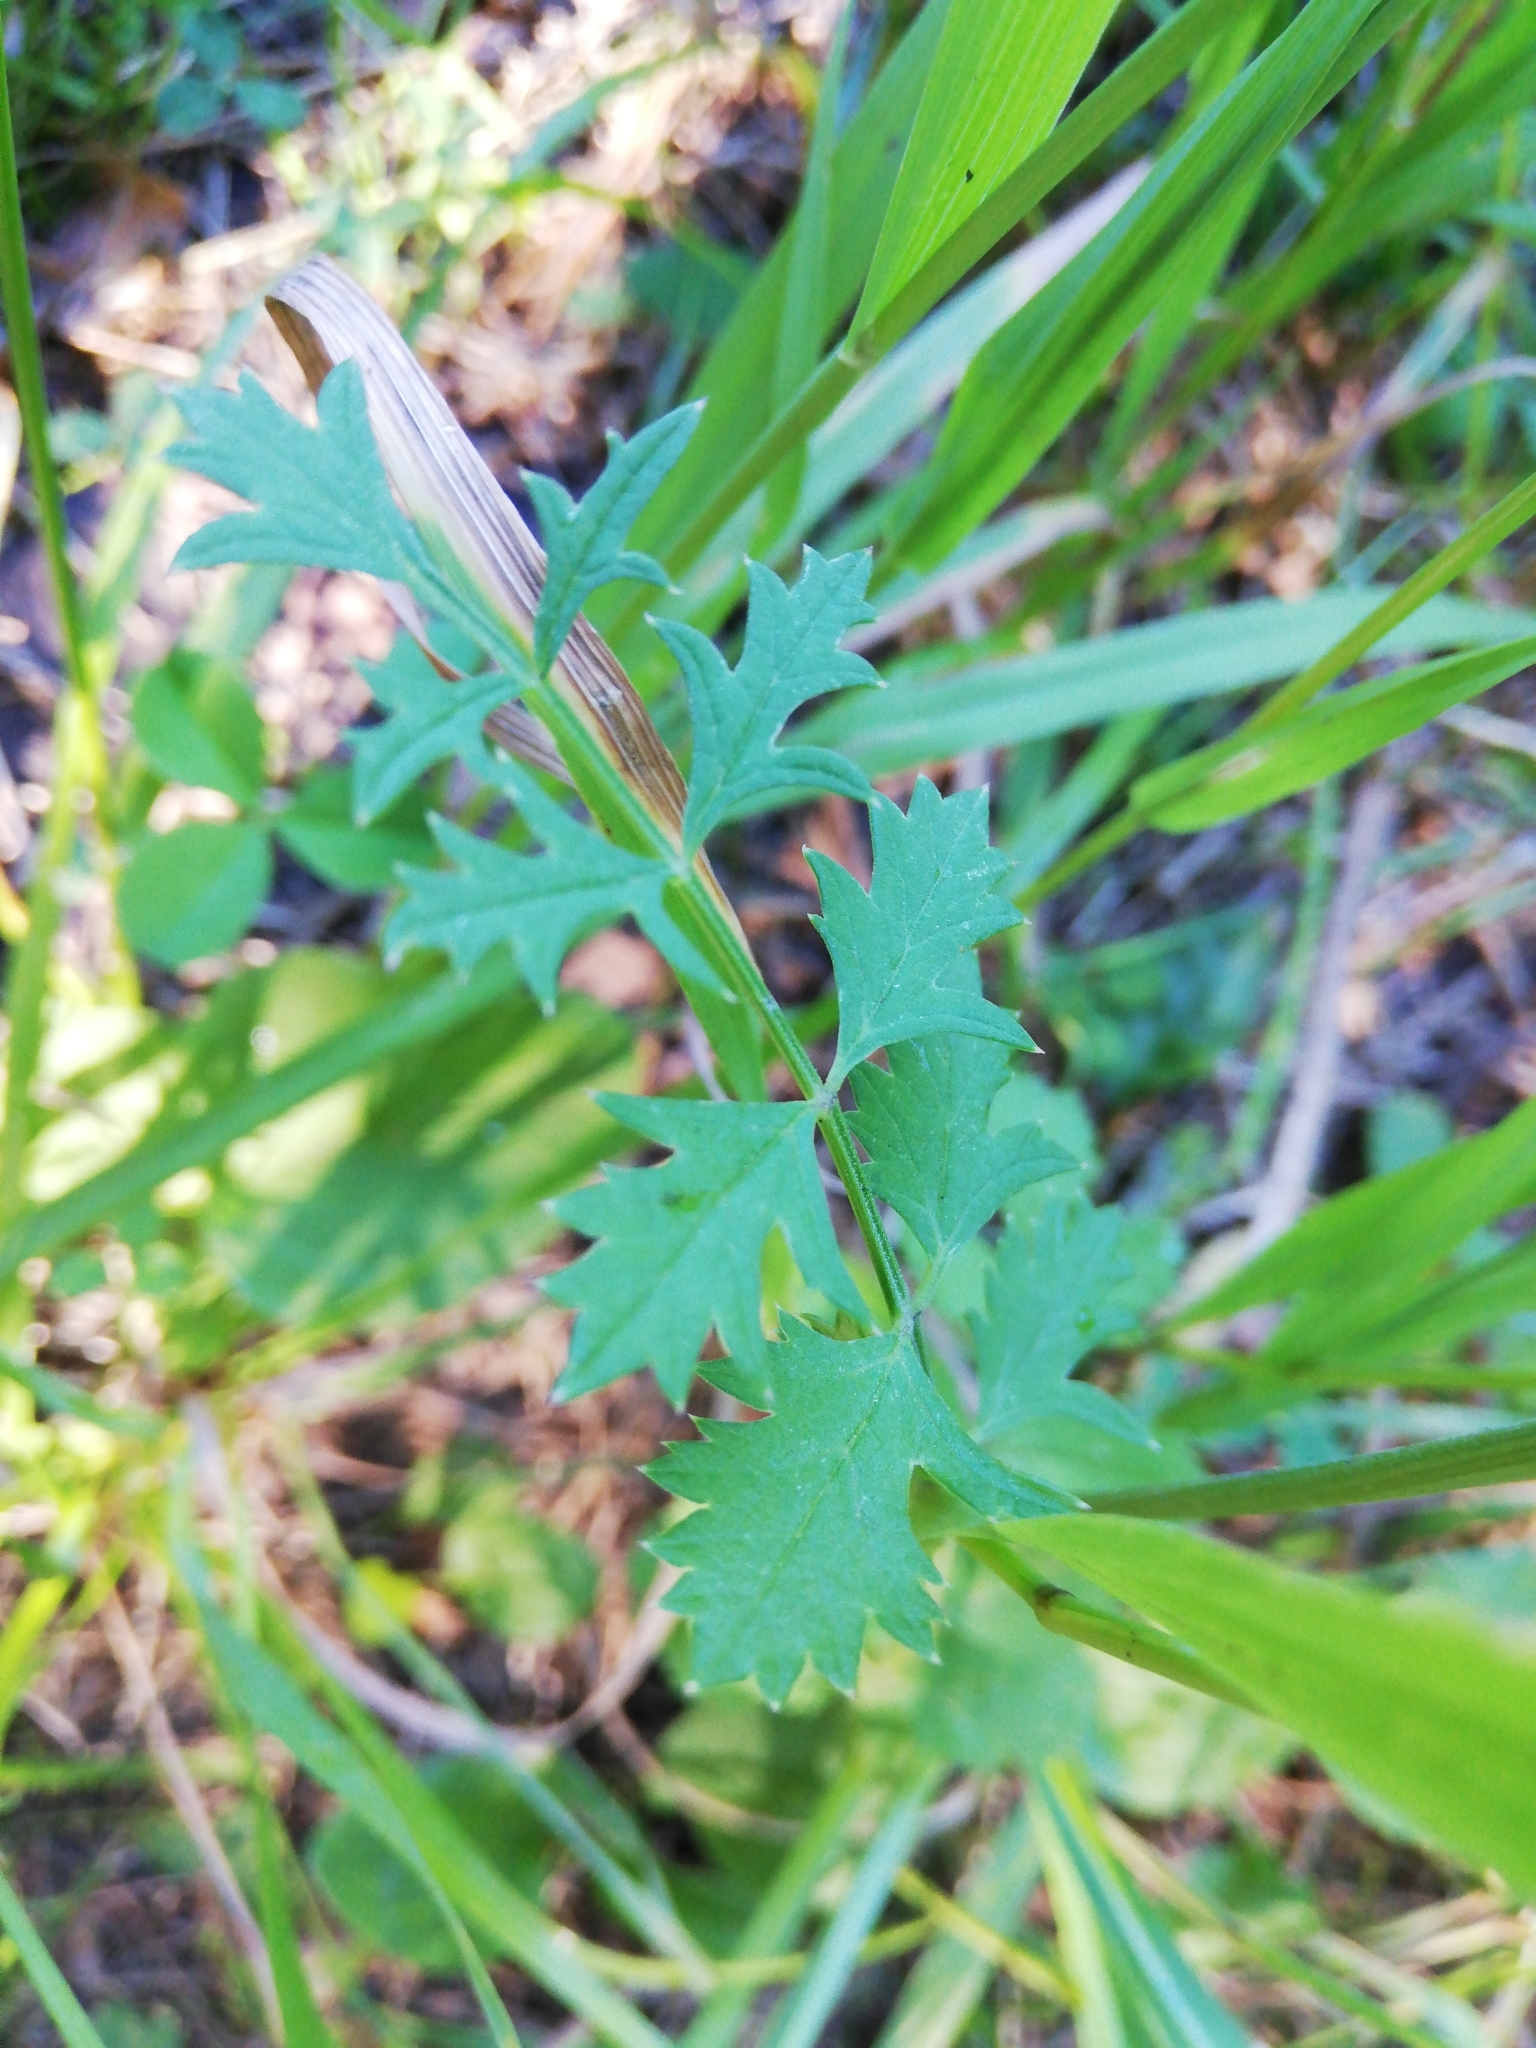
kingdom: Plantae
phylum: Tracheophyta
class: Magnoliopsida
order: Apiales
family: Apiaceae
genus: Pimpinella
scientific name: Pimpinella saxifraga
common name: Burnet-saxifrage
